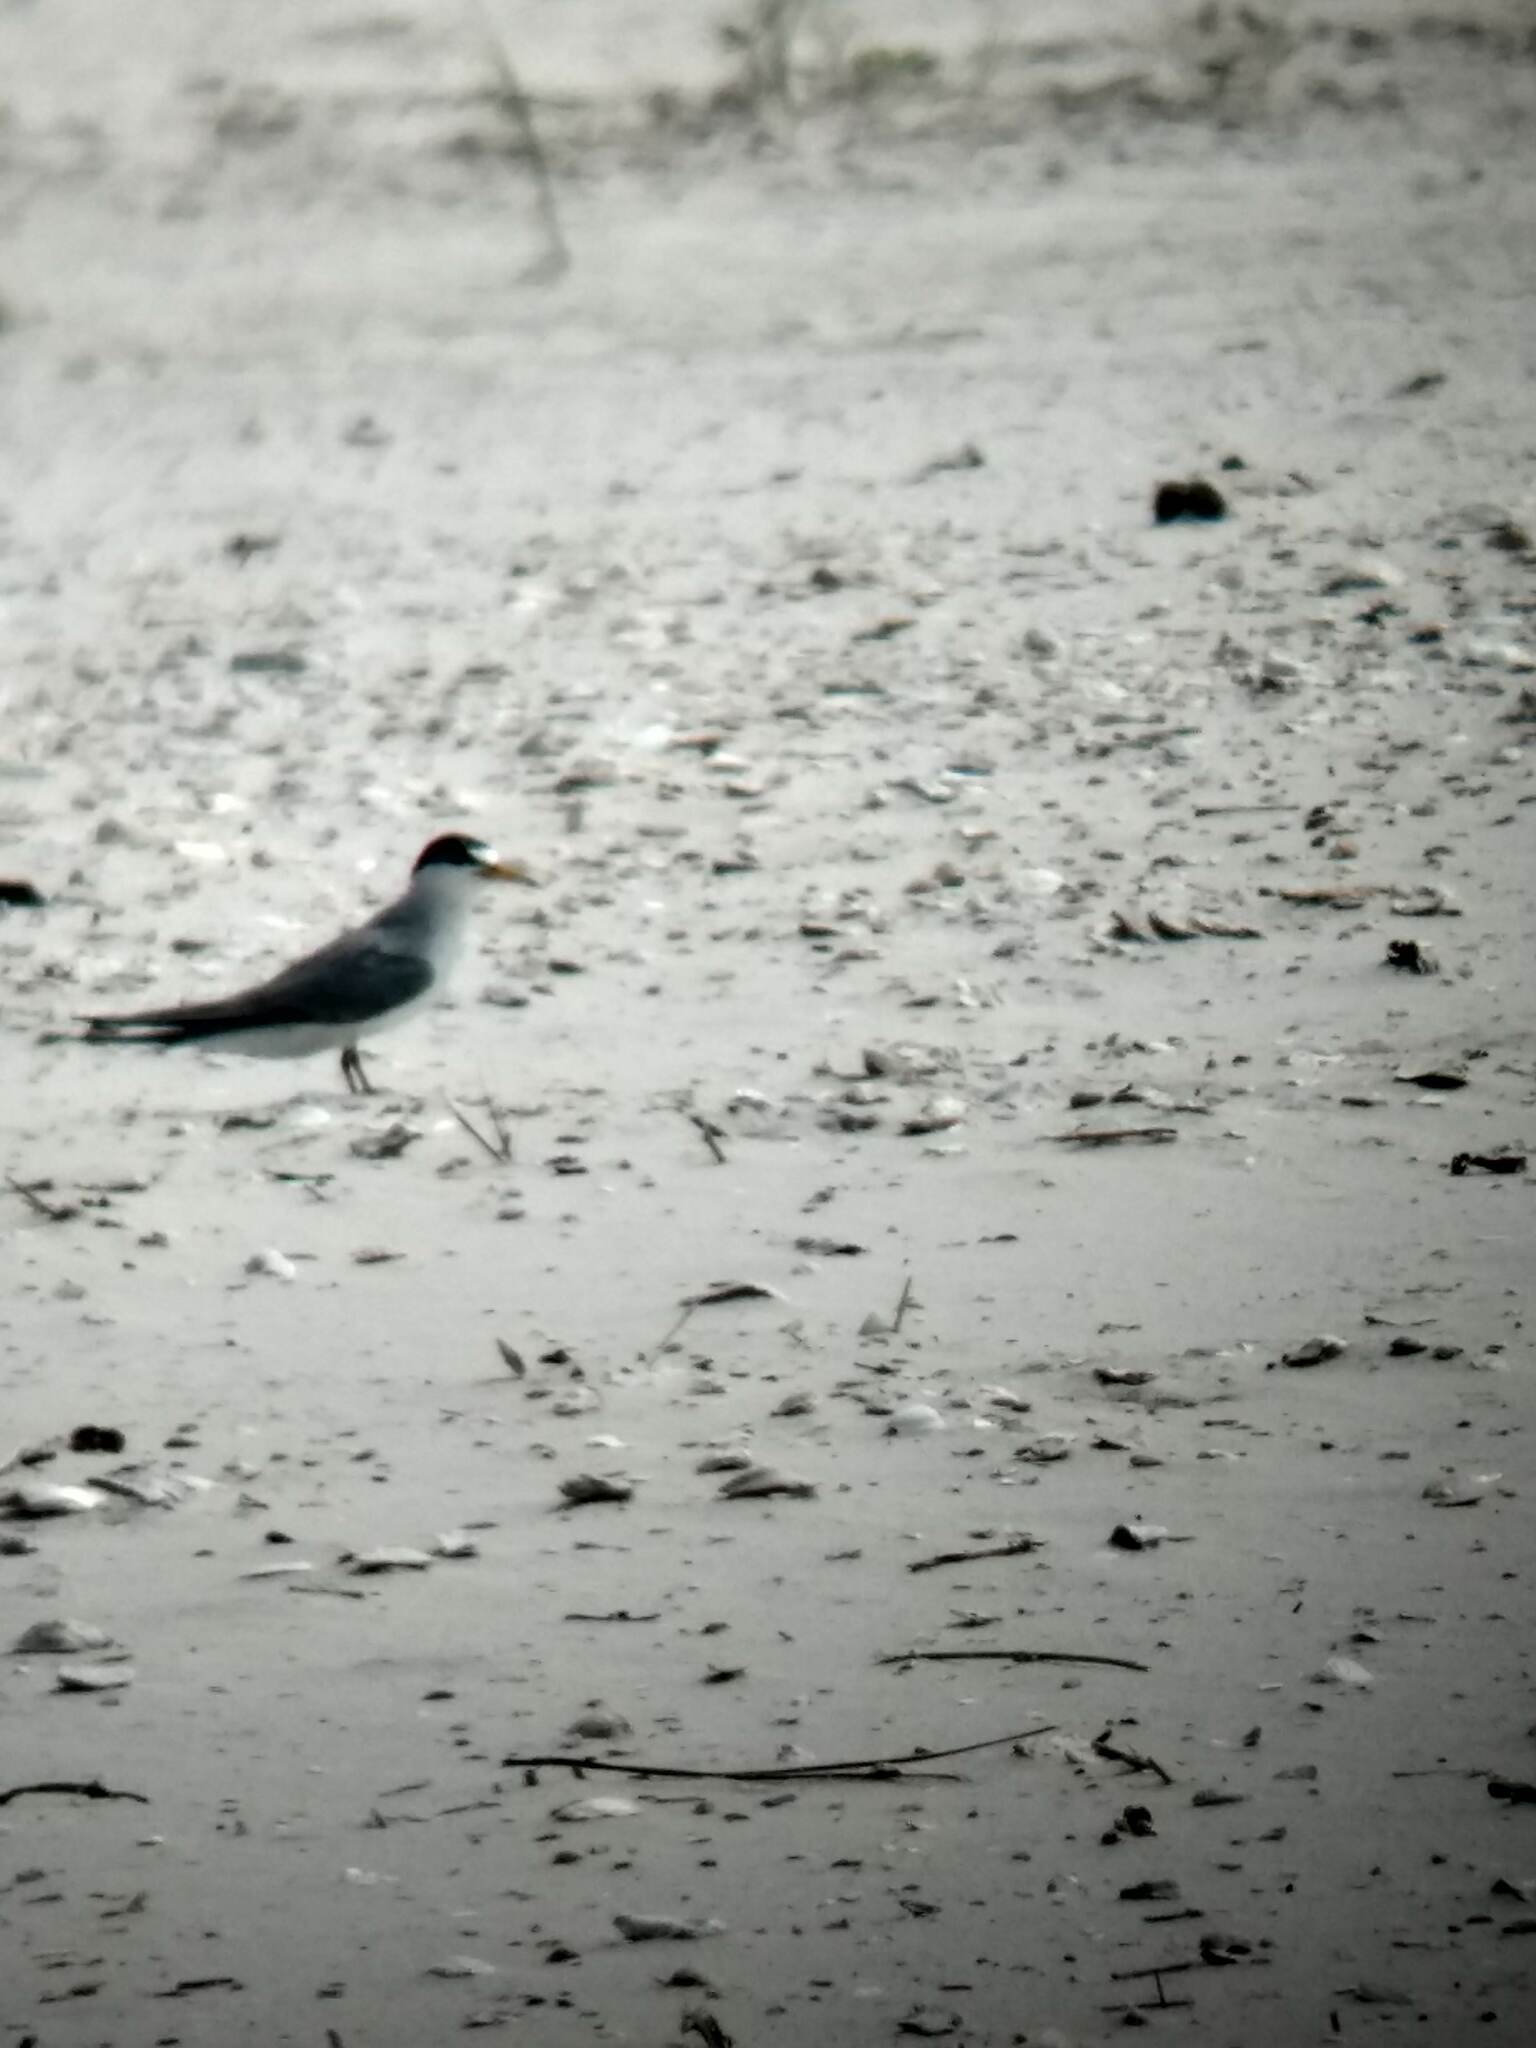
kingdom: Animalia
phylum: Chordata
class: Aves
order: Charadriiformes
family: Laridae
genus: Sternula
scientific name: Sternula antillarum
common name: Least tern
